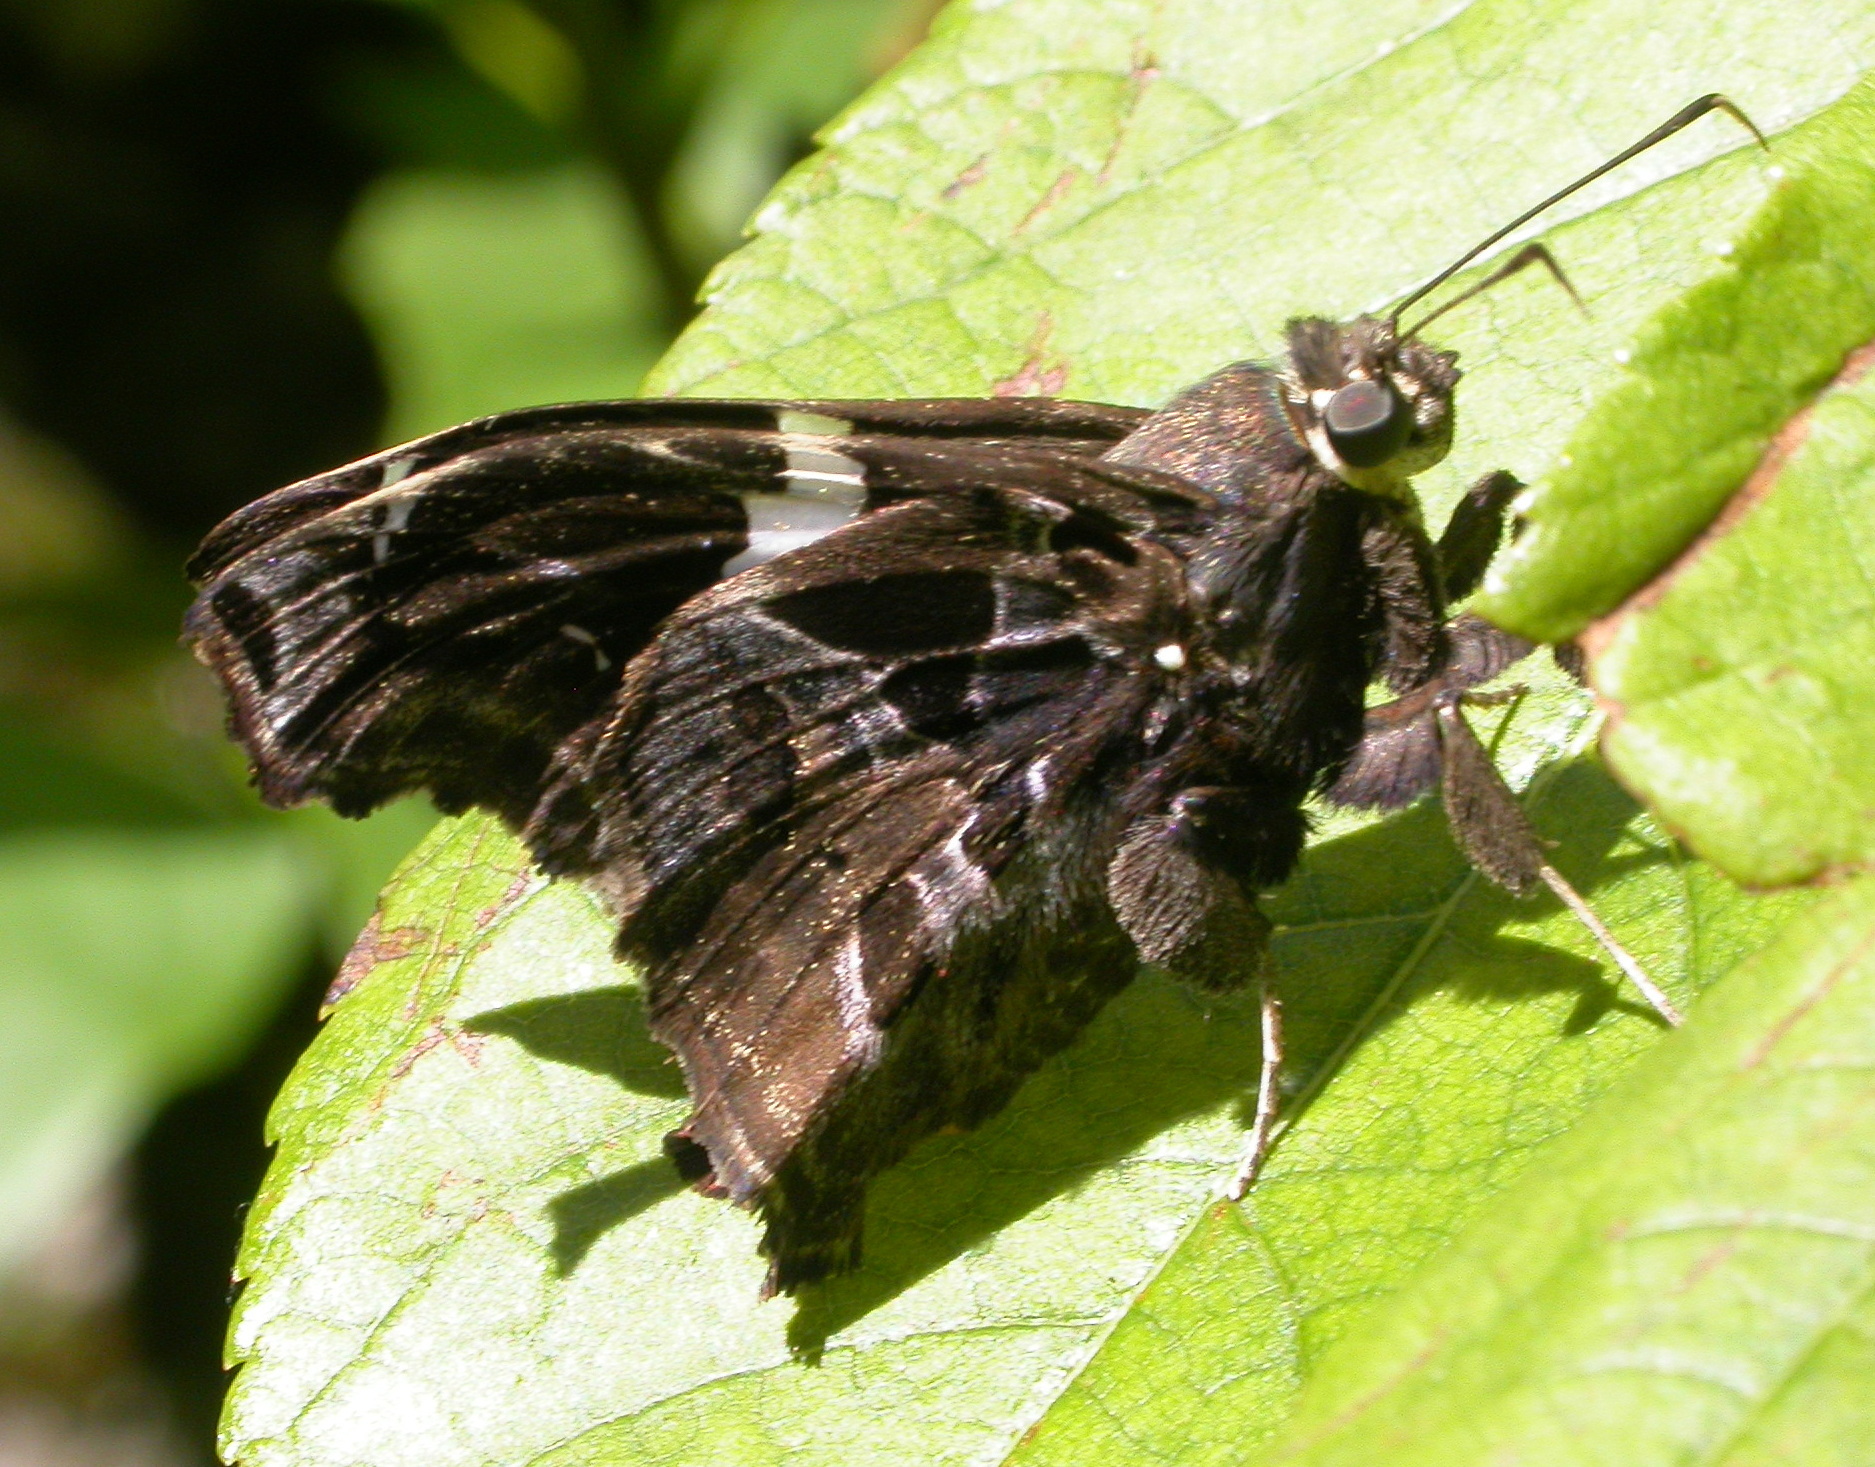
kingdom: Animalia
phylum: Arthropoda
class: Insecta
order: Lepidoptera
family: Hesperiidae
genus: Spathilepia
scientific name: Spathilepia clonius
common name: Falcate skipper
